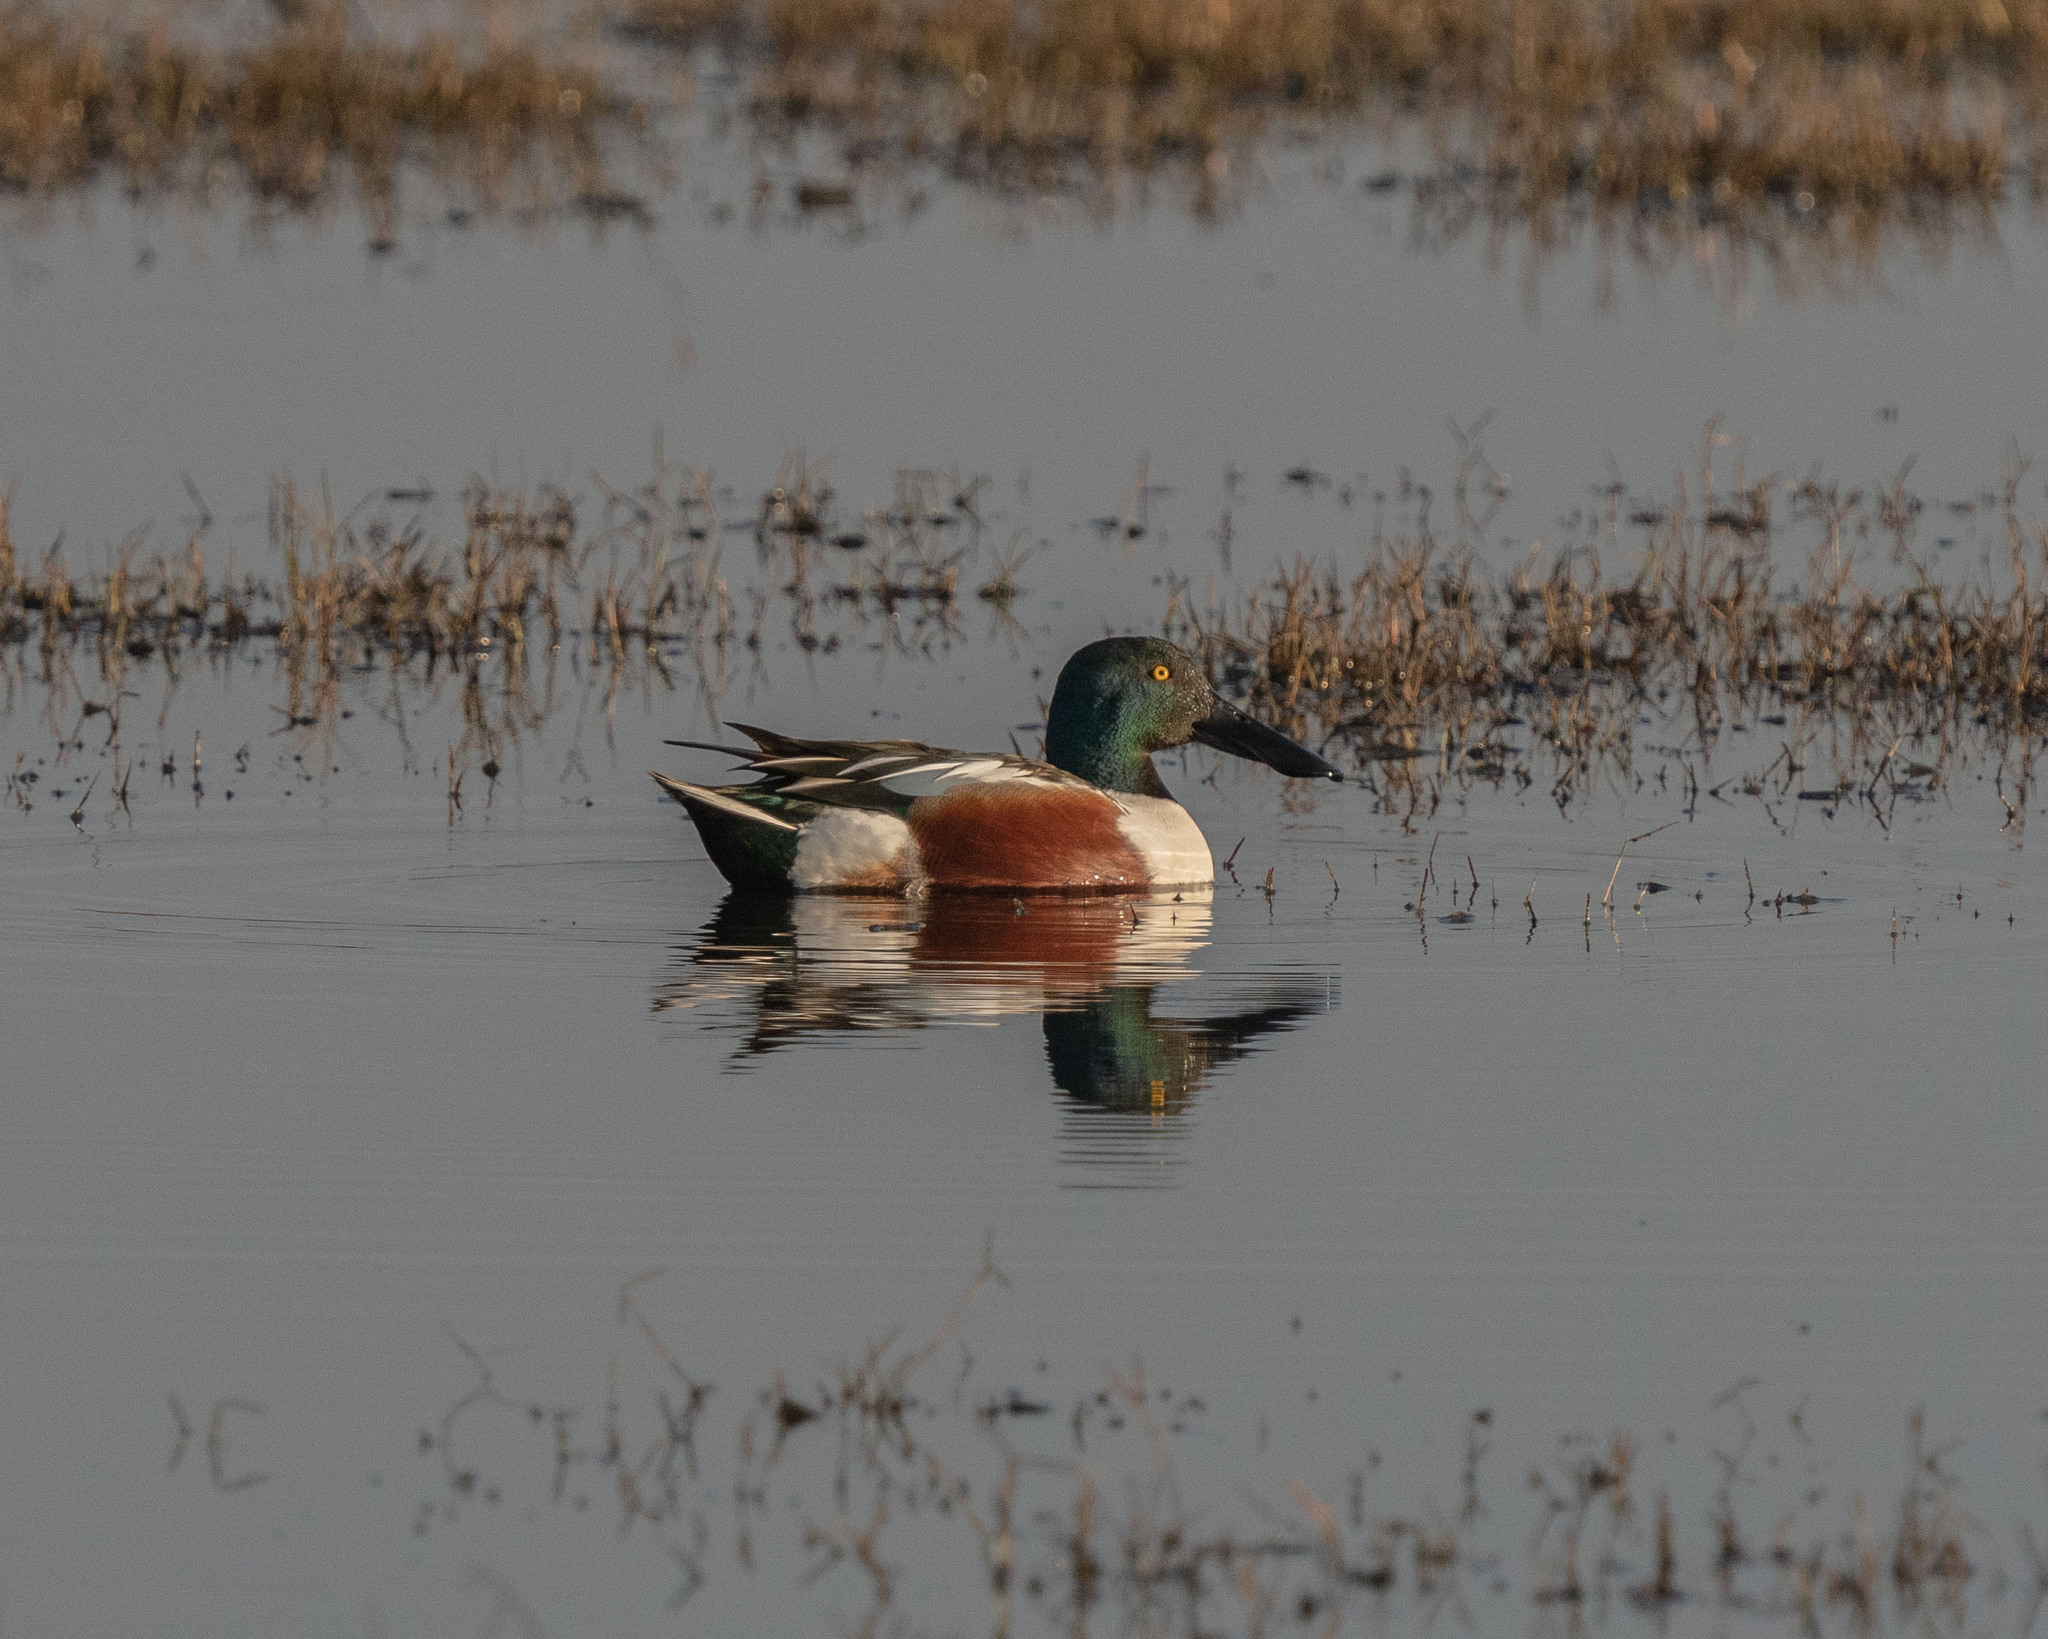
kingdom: Animalia
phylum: Chordata
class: Aves
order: Anseriformes
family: Anatidae
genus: Spatula
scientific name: Spatula clypeata
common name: Northern shoveler
